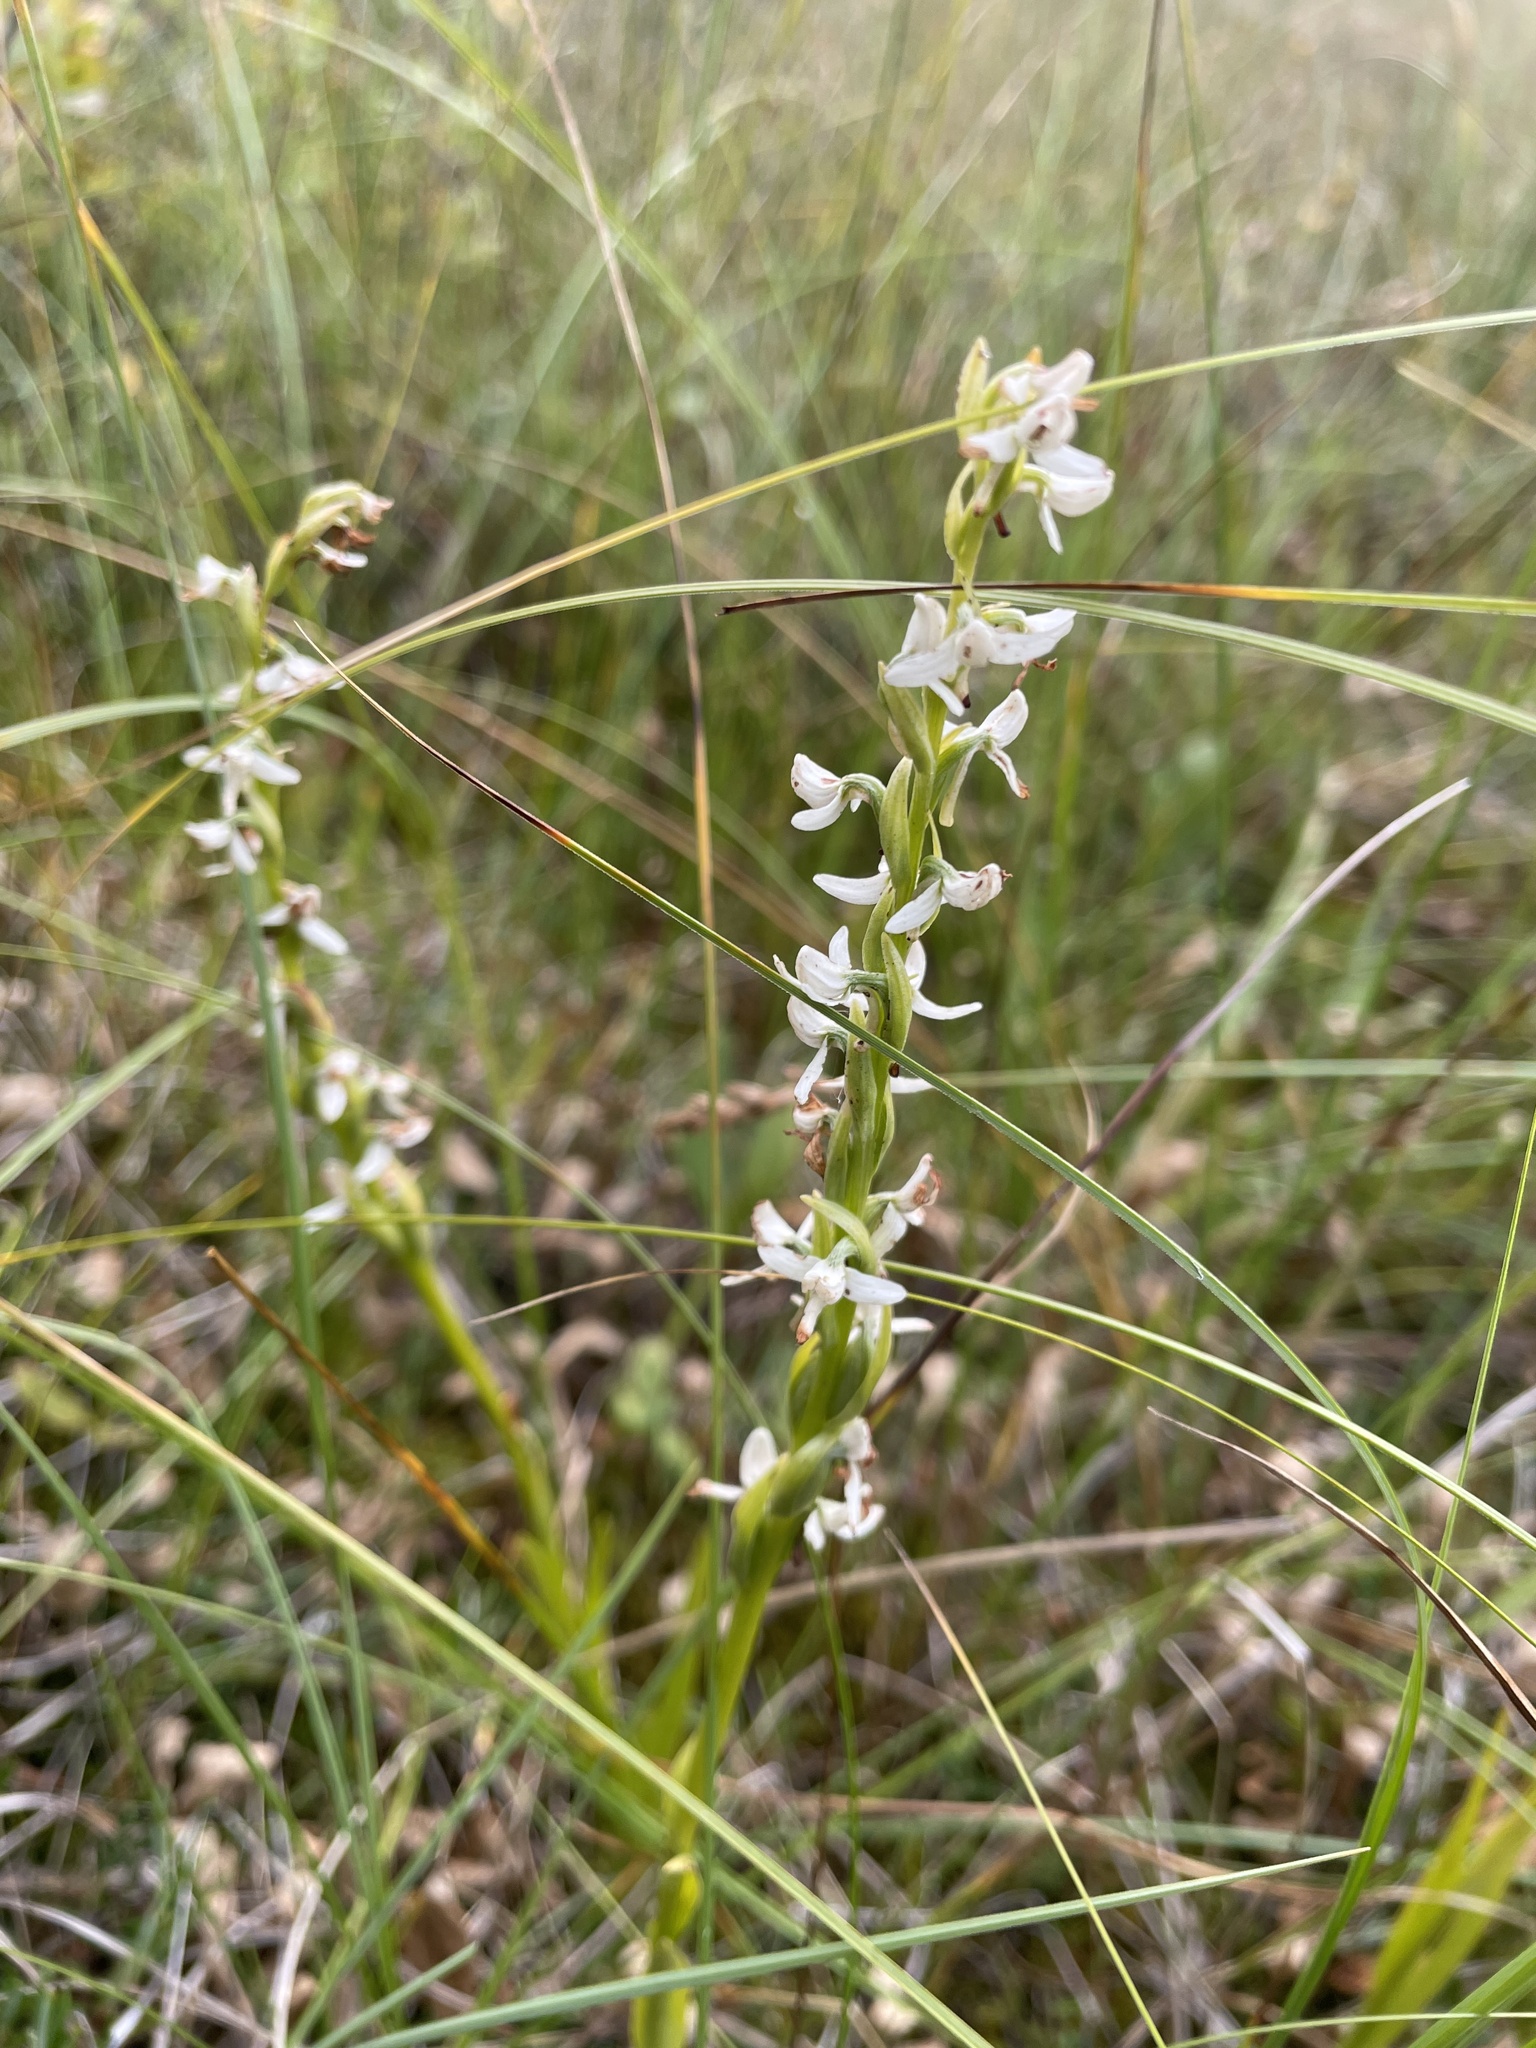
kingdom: Plantae
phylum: Tracheophyta
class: Liliopsida
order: Asparagales
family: Orchidaceae
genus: Platanthera
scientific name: Platanthera dilatata
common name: Bog candles
